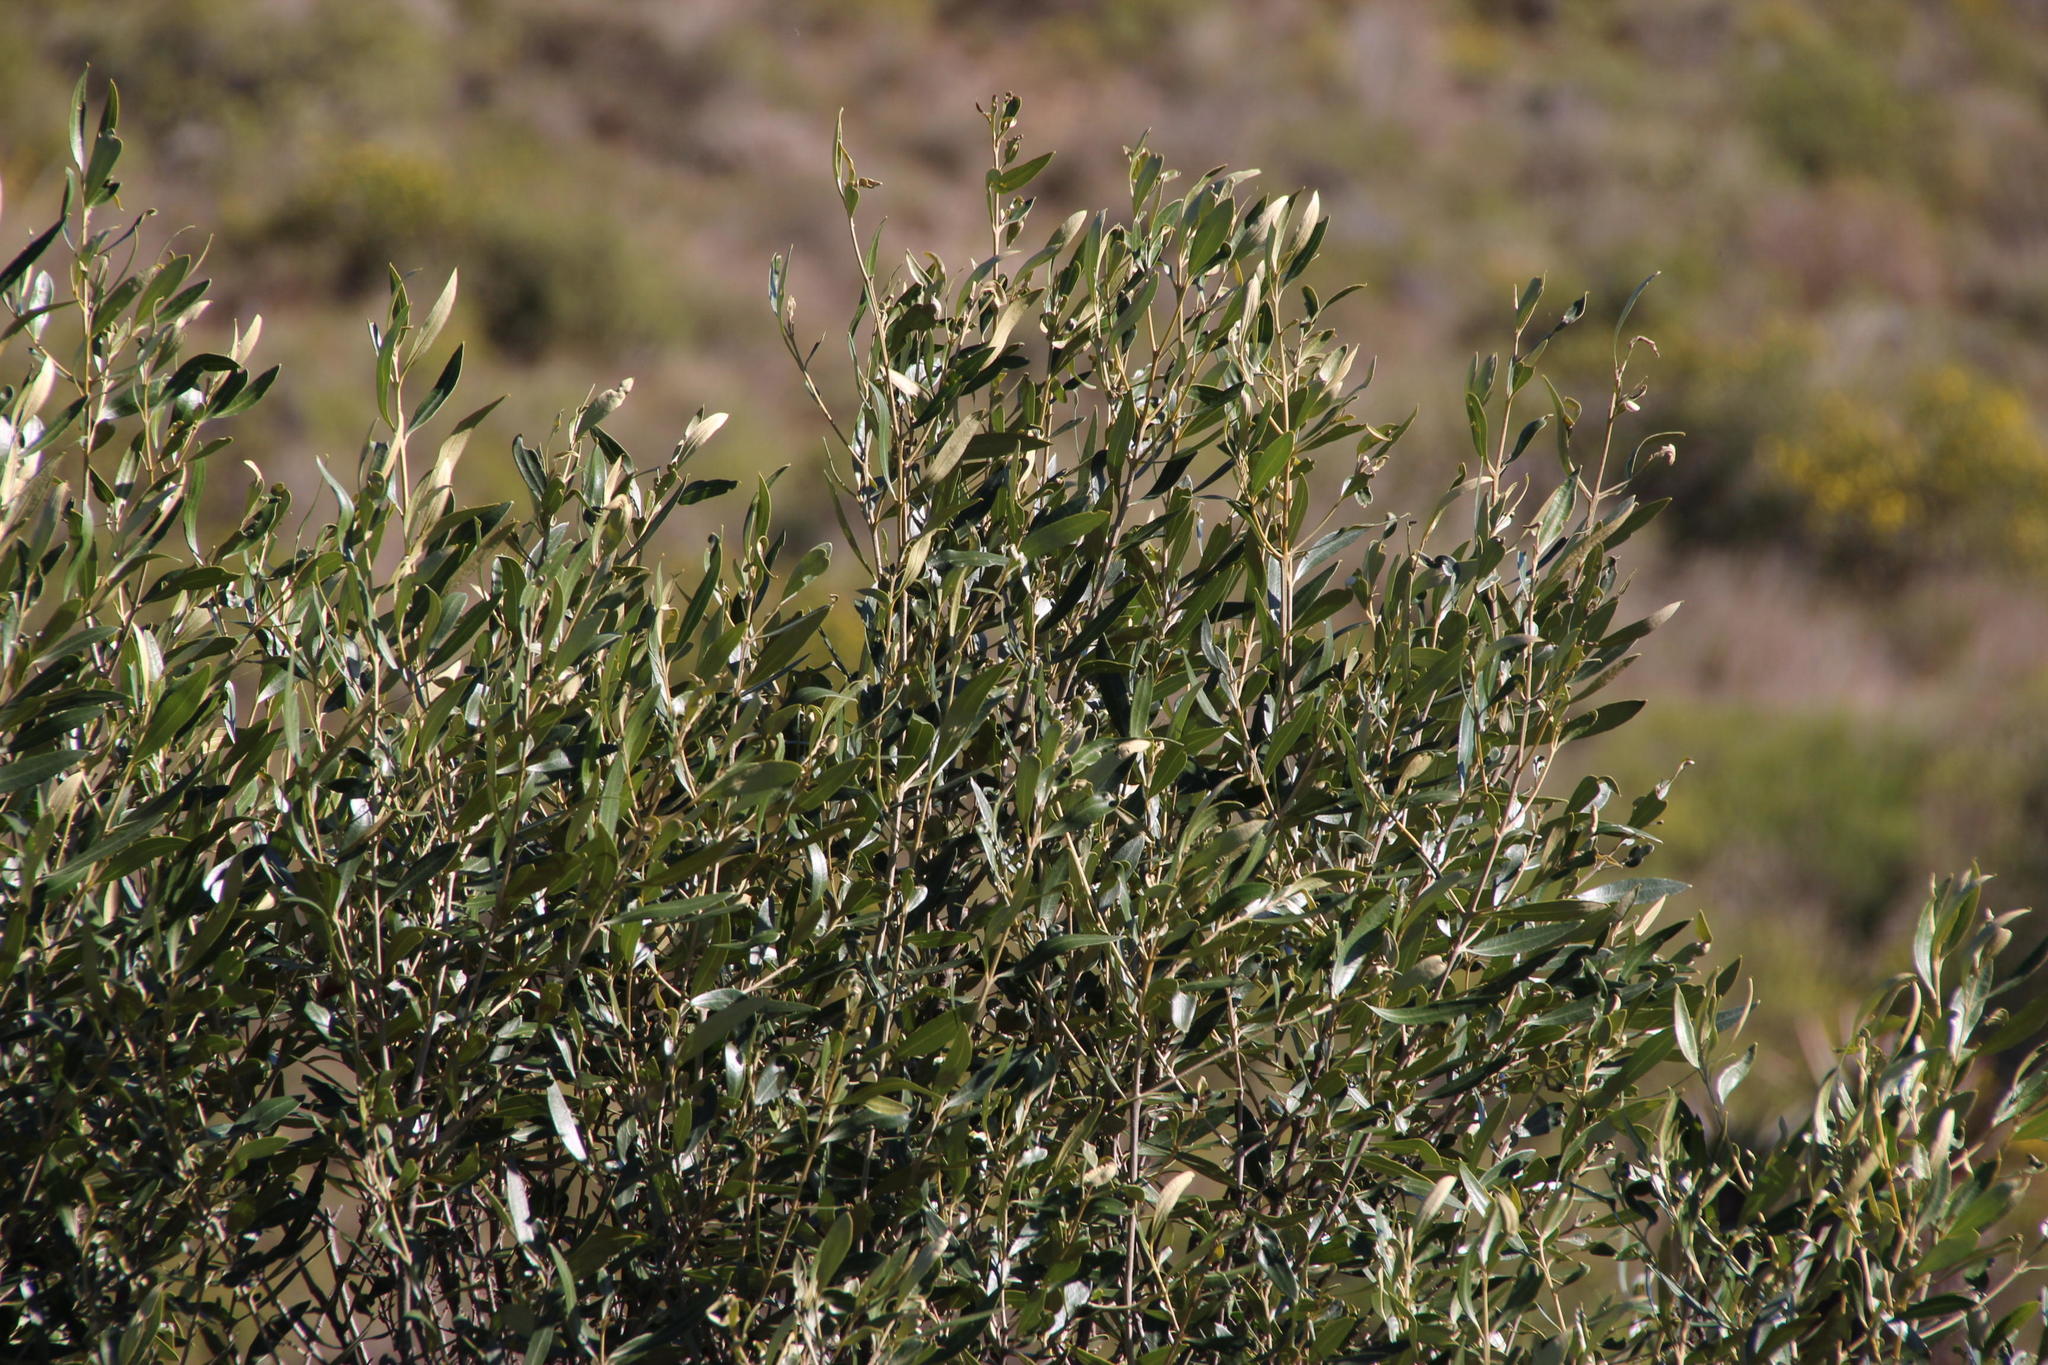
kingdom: Plantae
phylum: Tracheophyta
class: Magnoliopsida
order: Lamiales
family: Oleaceae
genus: Olea
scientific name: Olea europaea
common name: Olive
